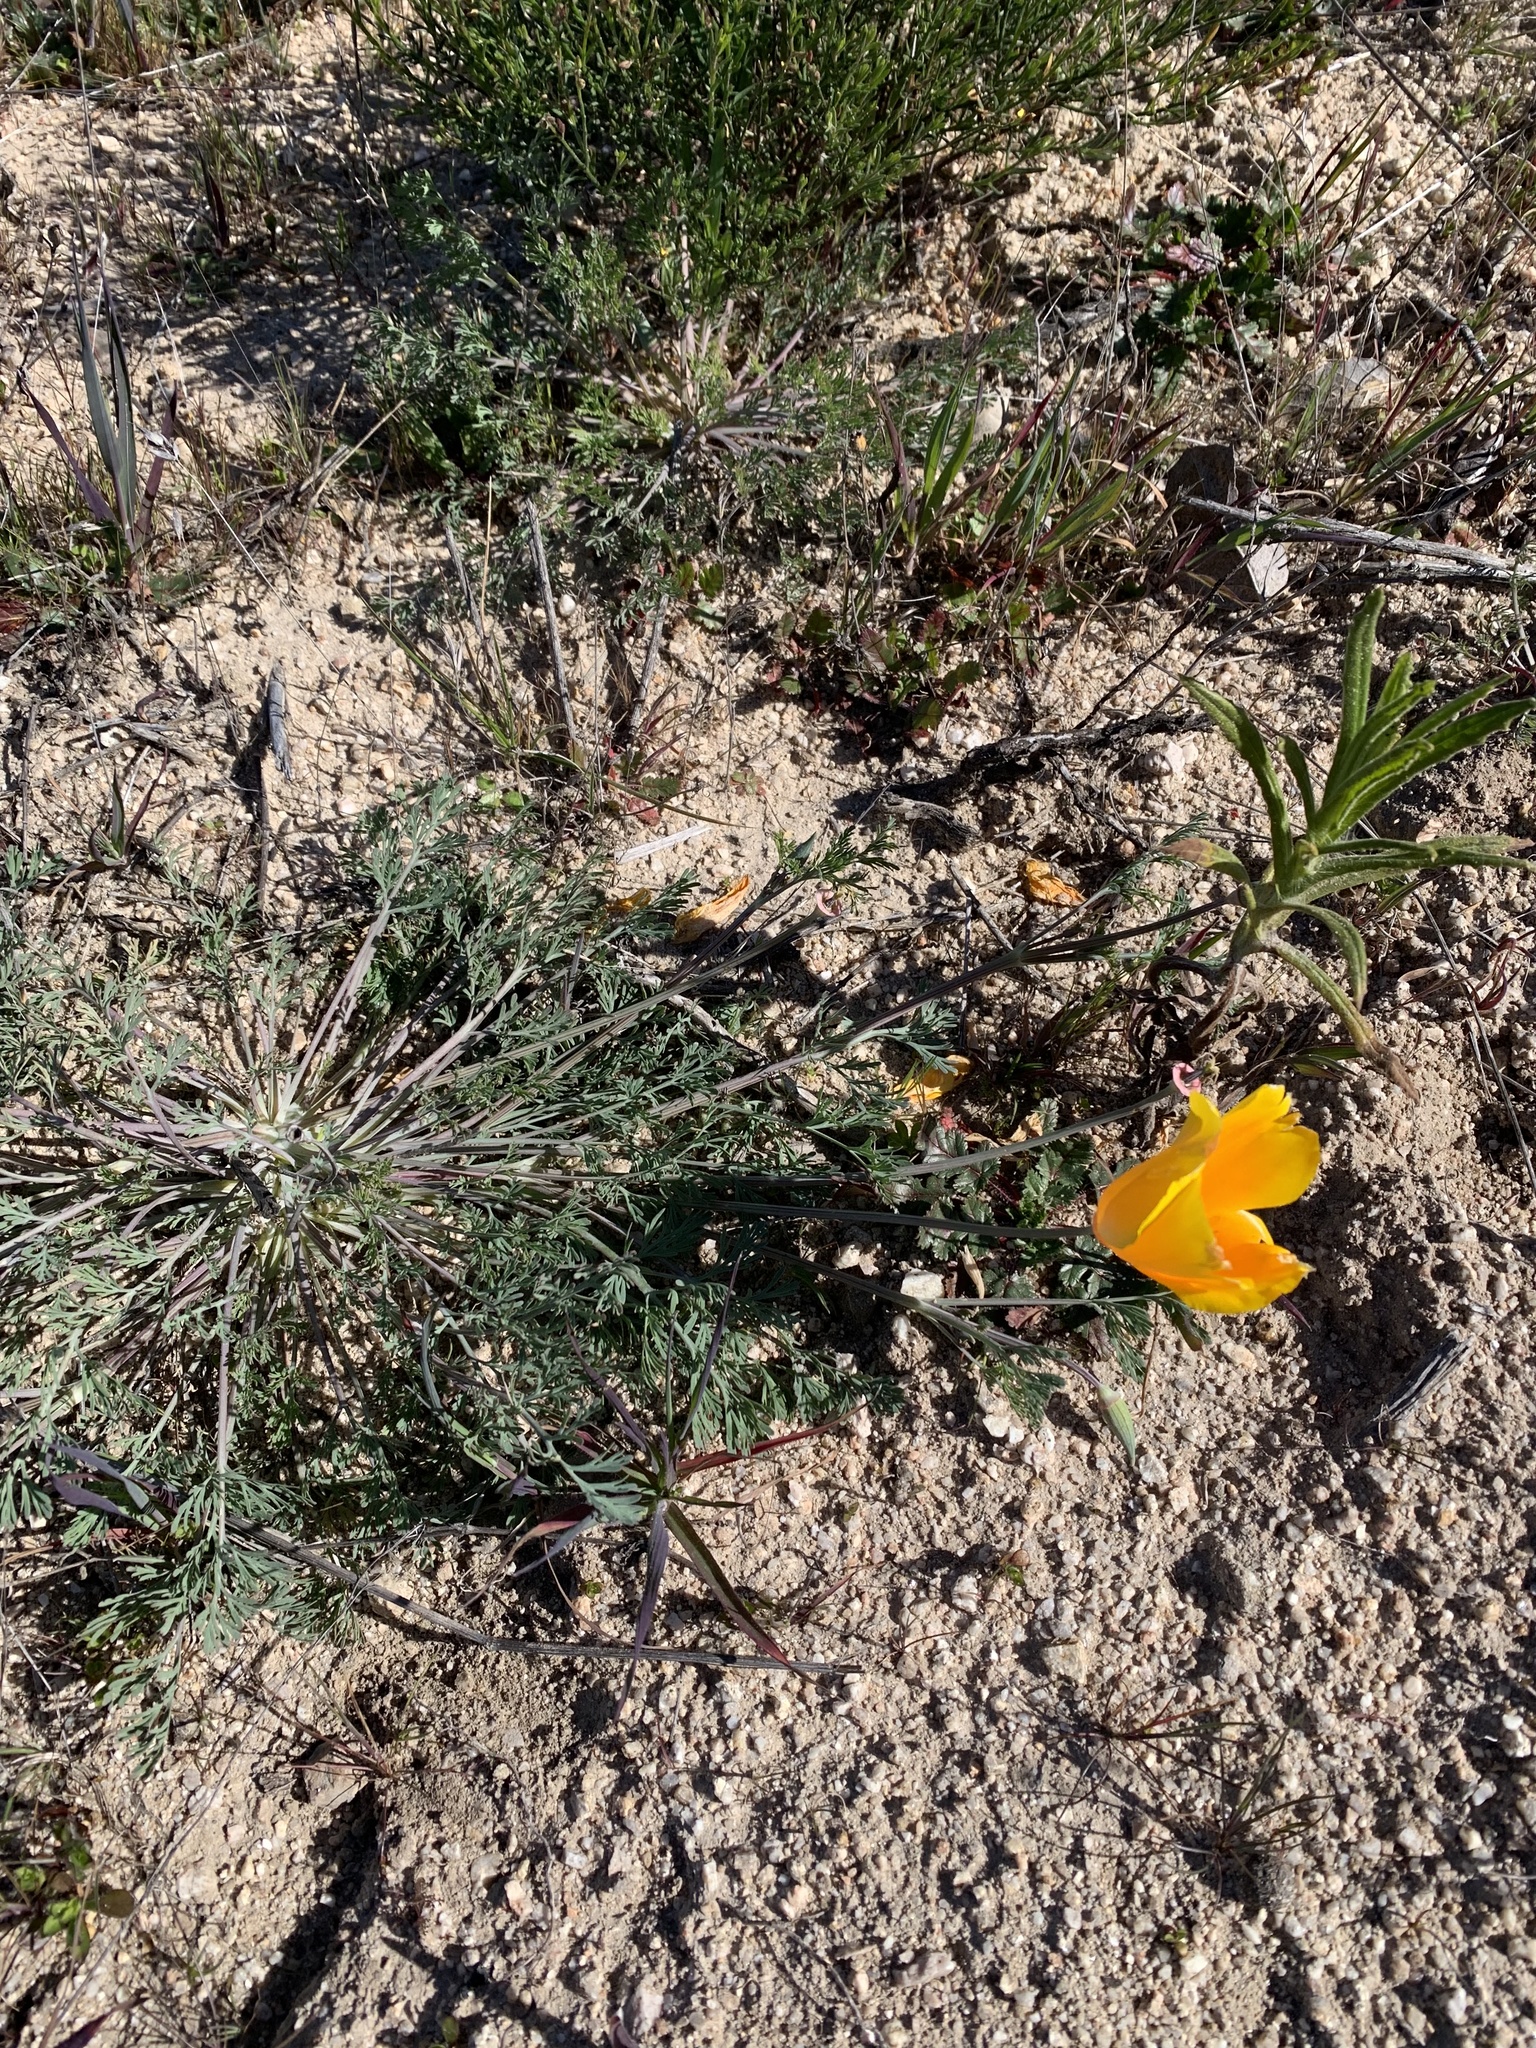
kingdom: Plantae
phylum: Tracheophyta
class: Magnoliopsida
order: Ranunculales
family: Papaveraceae
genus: Eschscholzia
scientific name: Eschscholzia californica
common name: California poppy
